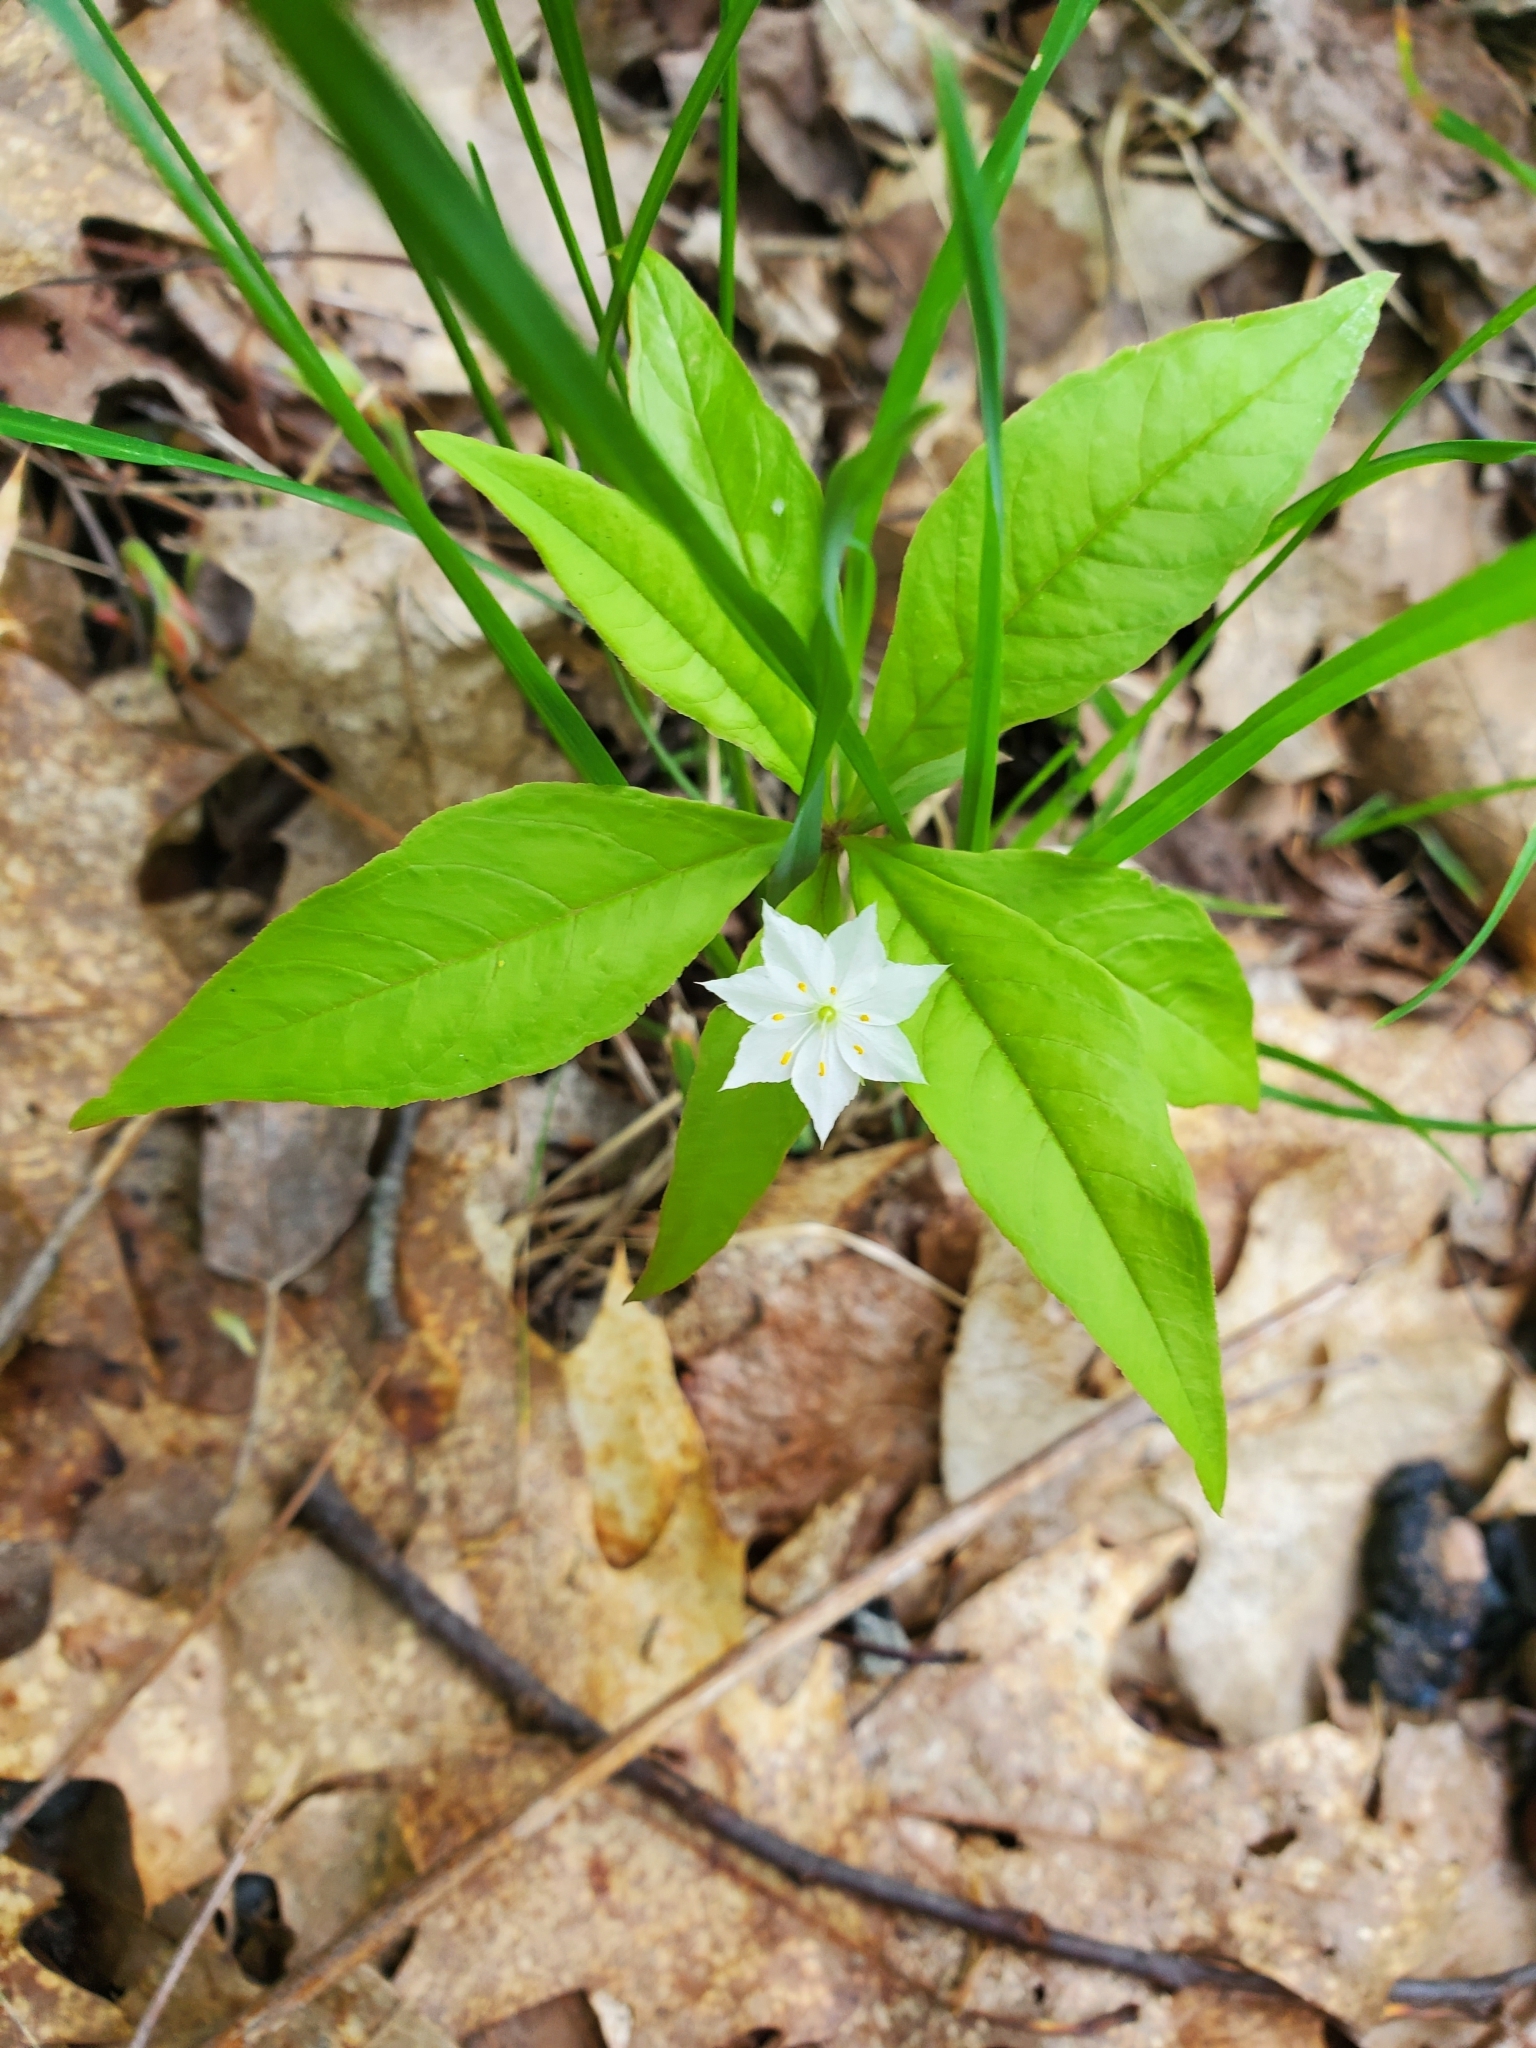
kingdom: Plantae
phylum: Tracheophyta
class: Magnoliopsida
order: Ericales
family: Primulaceae
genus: Lysimachia
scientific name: Lysimachia borealis
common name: American starflower
